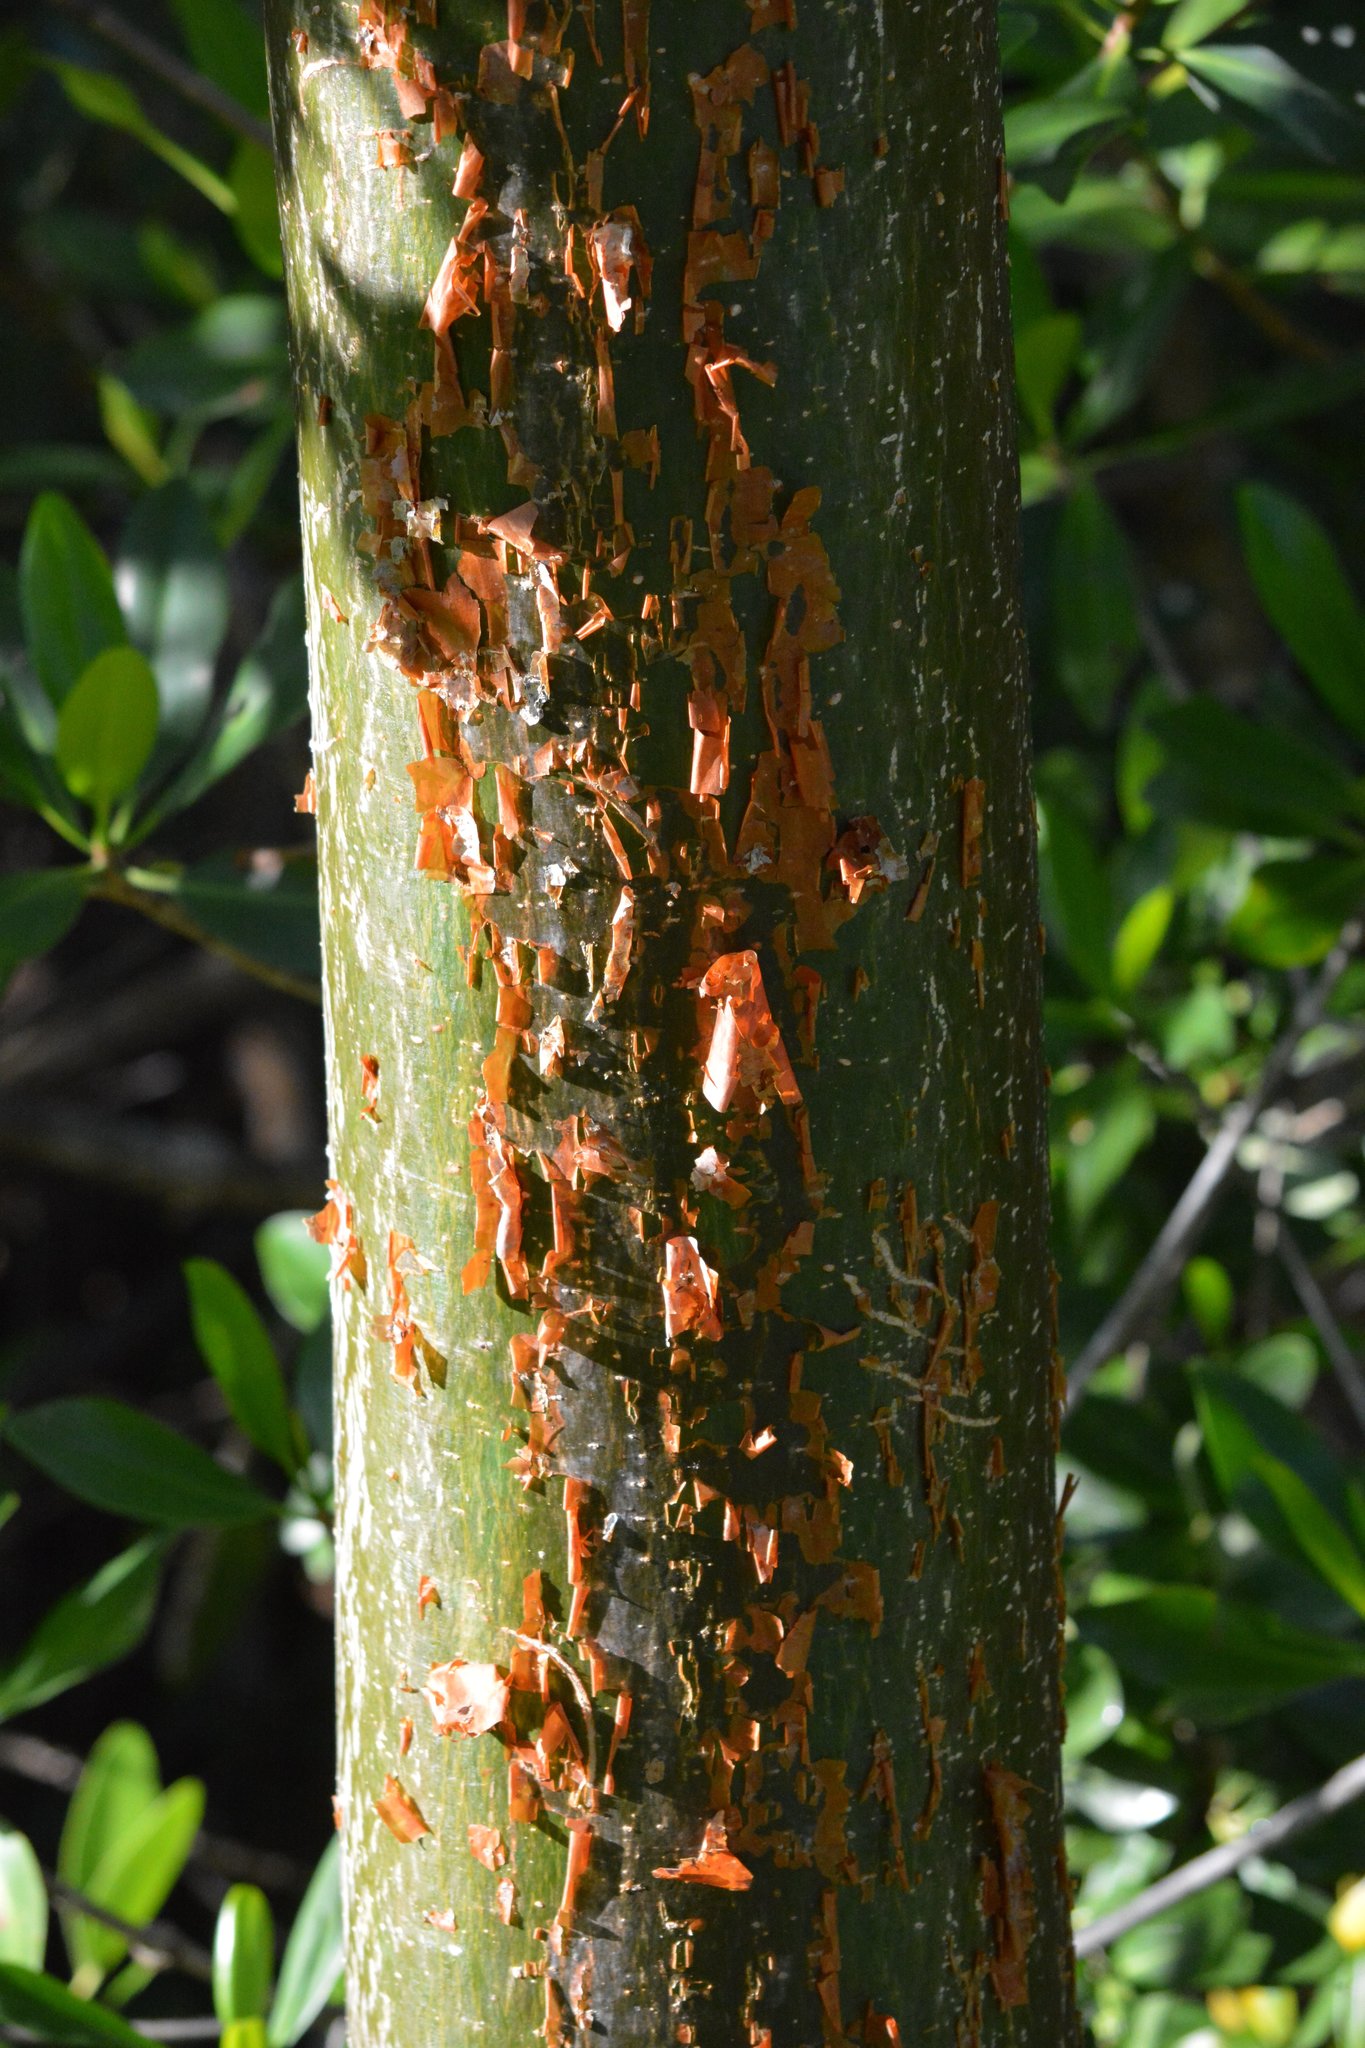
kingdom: Plantae
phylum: Tracheophyta
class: Magnoliopsida
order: Sapindales
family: Burseraceae
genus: Bursera
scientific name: Bursera simaruba
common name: Turpentine tree
